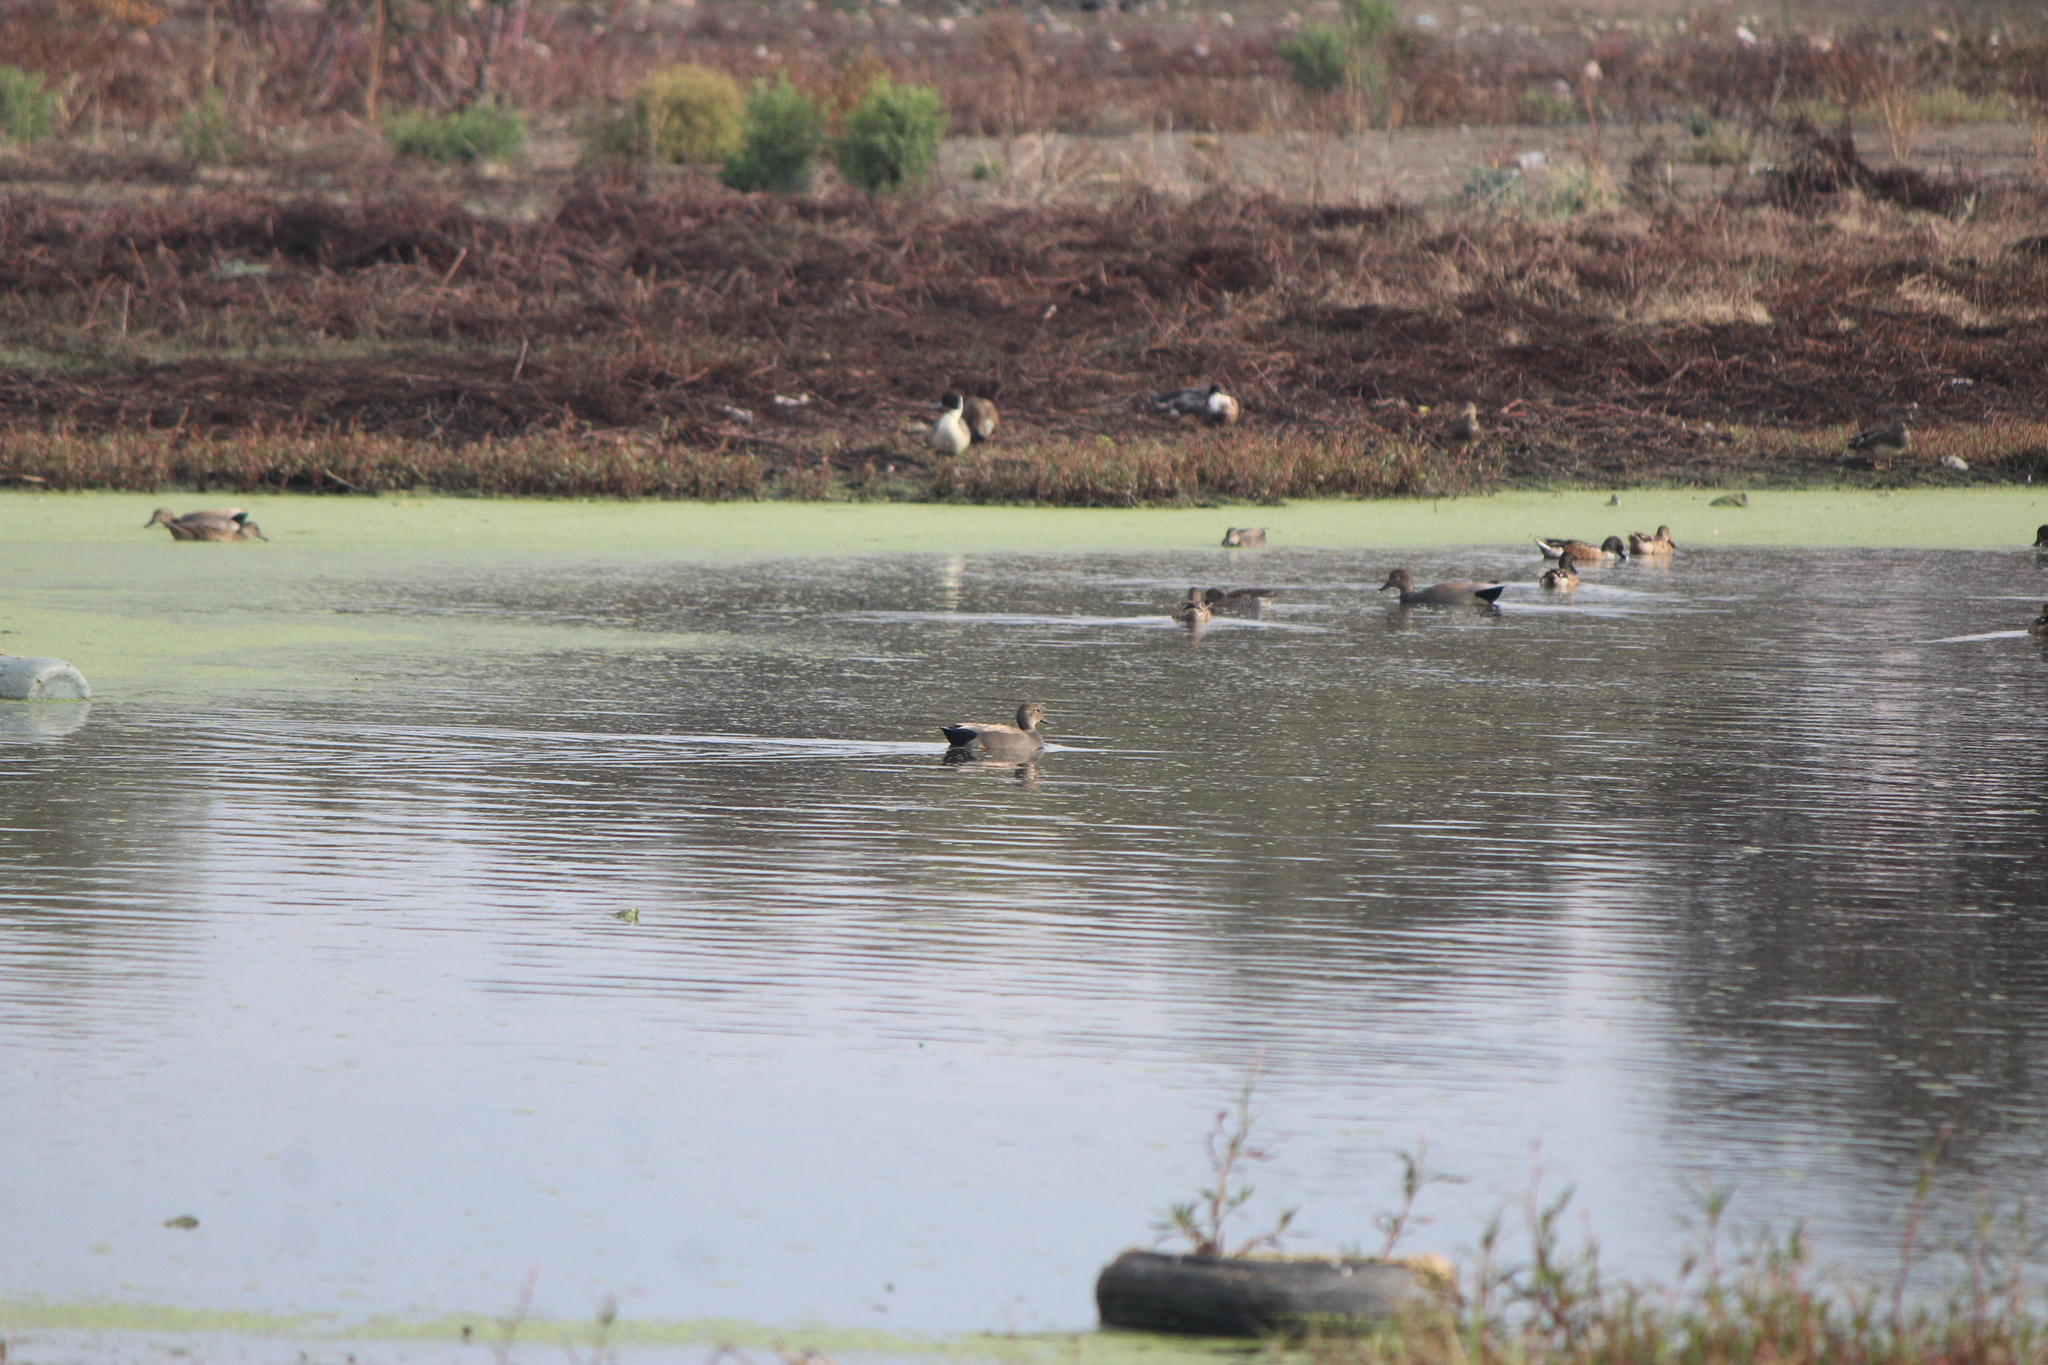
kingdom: Animalia
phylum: Chordata
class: Aves
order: Anseriformes
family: Anatidae
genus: Mareca
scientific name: Mareca strepera
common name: Gadwall
